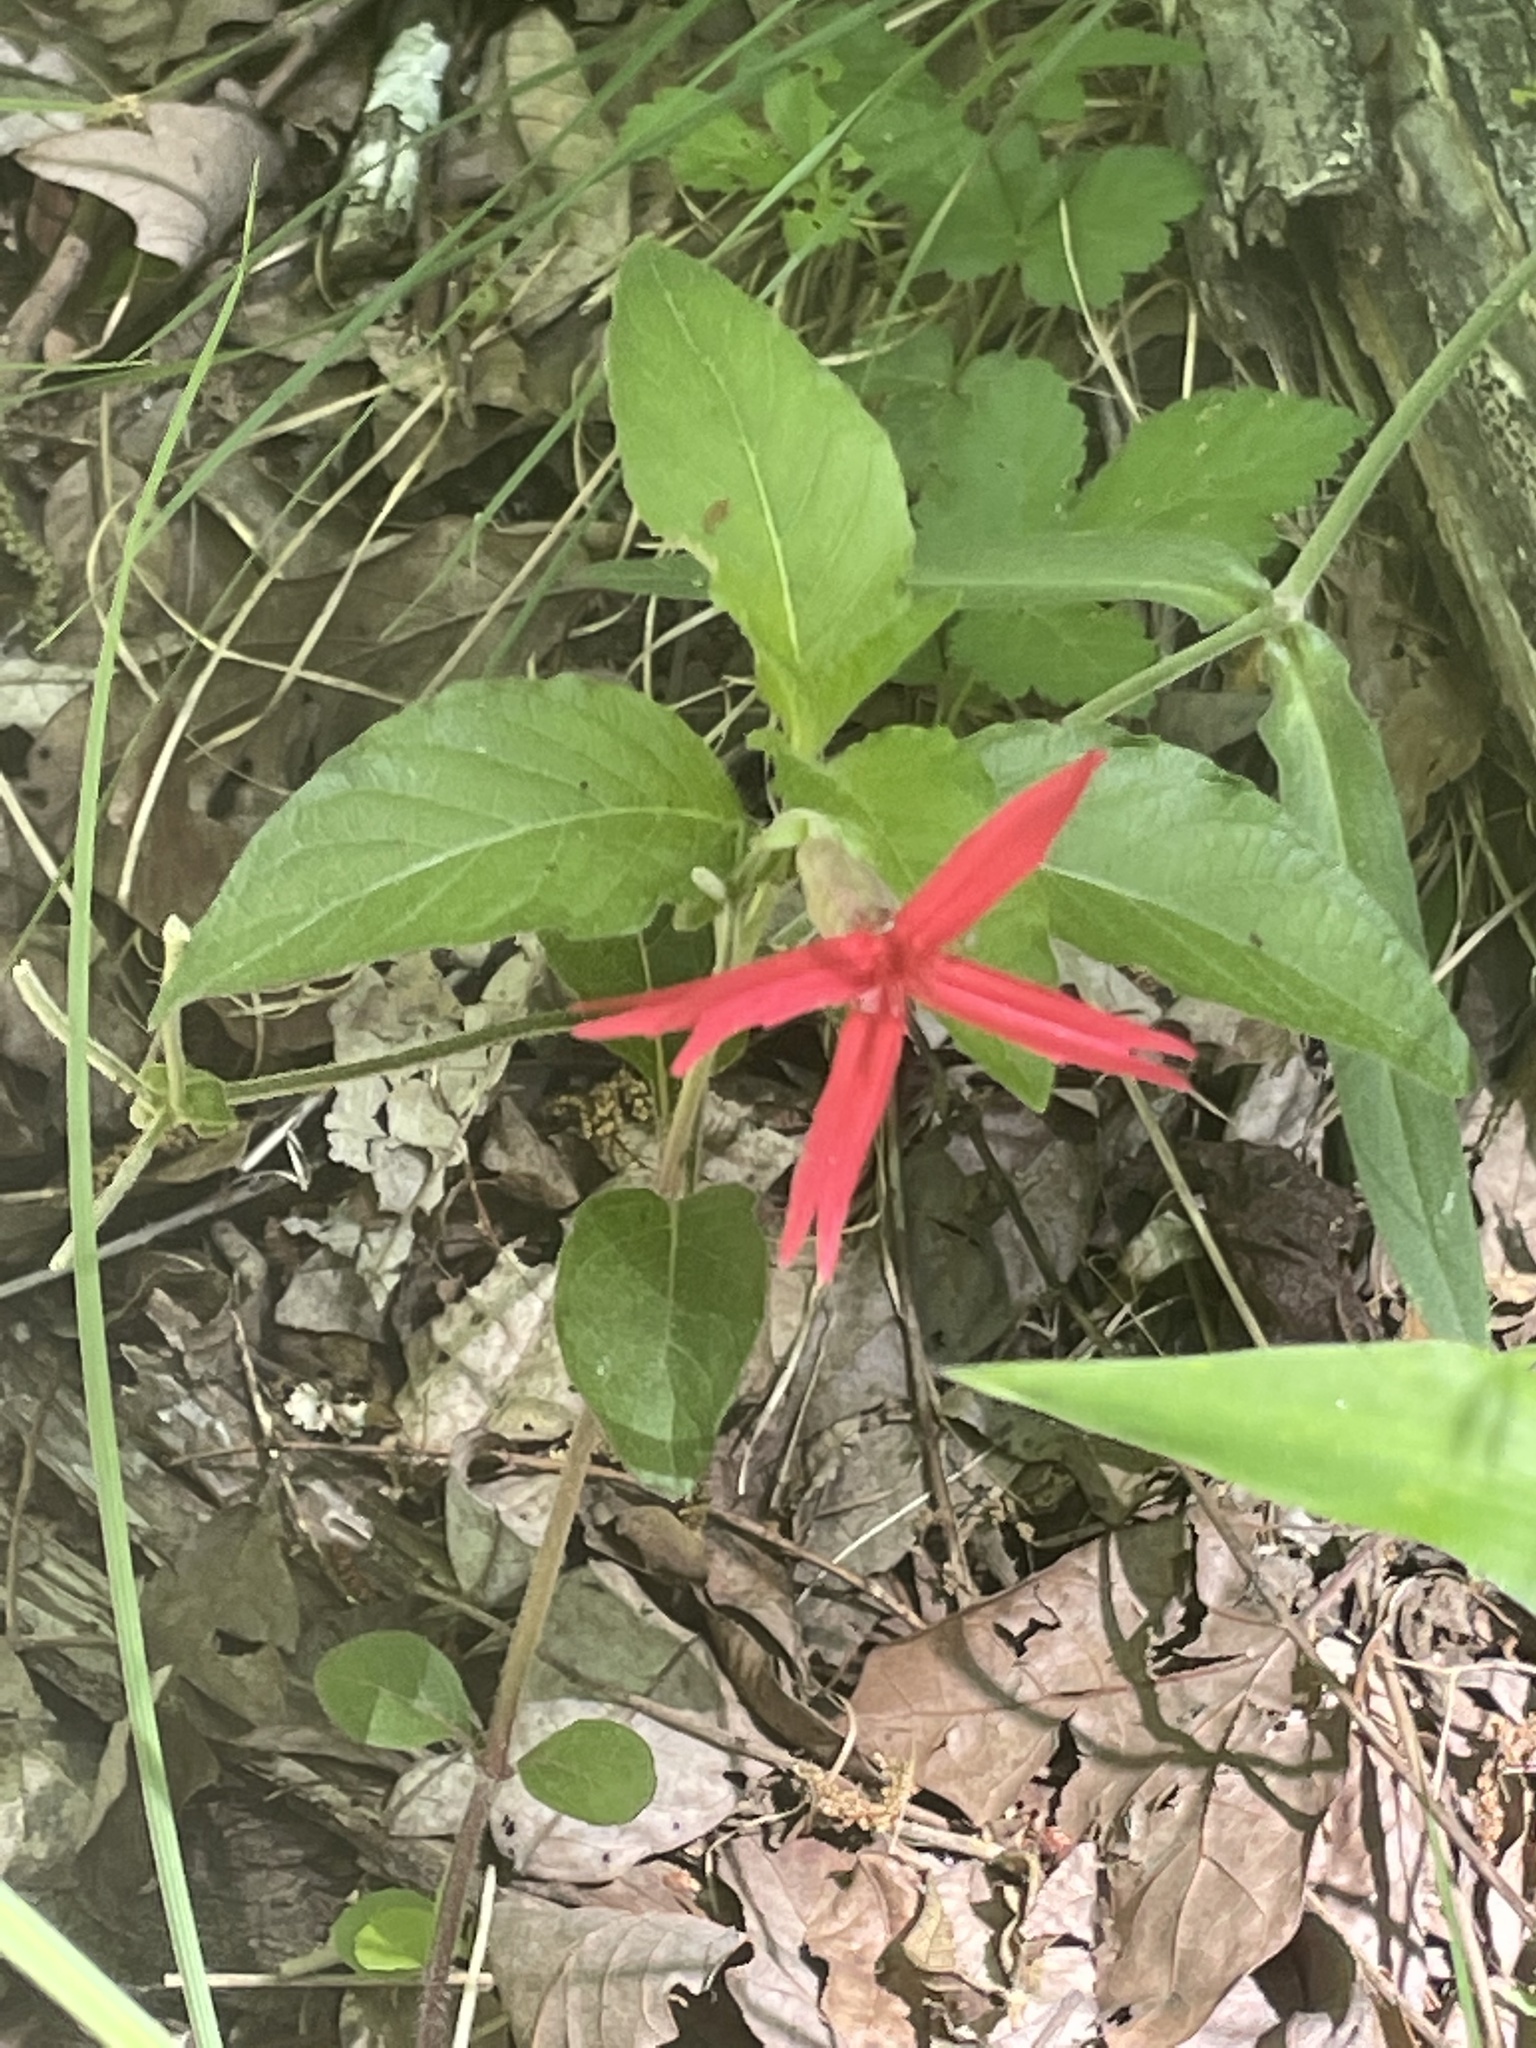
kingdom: Plantae
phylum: Tracheophyta
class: Magnoliopsida
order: Caryophyllales
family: Caryophyllaceae
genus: Silene
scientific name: Silene virginica
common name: Fire-pink
